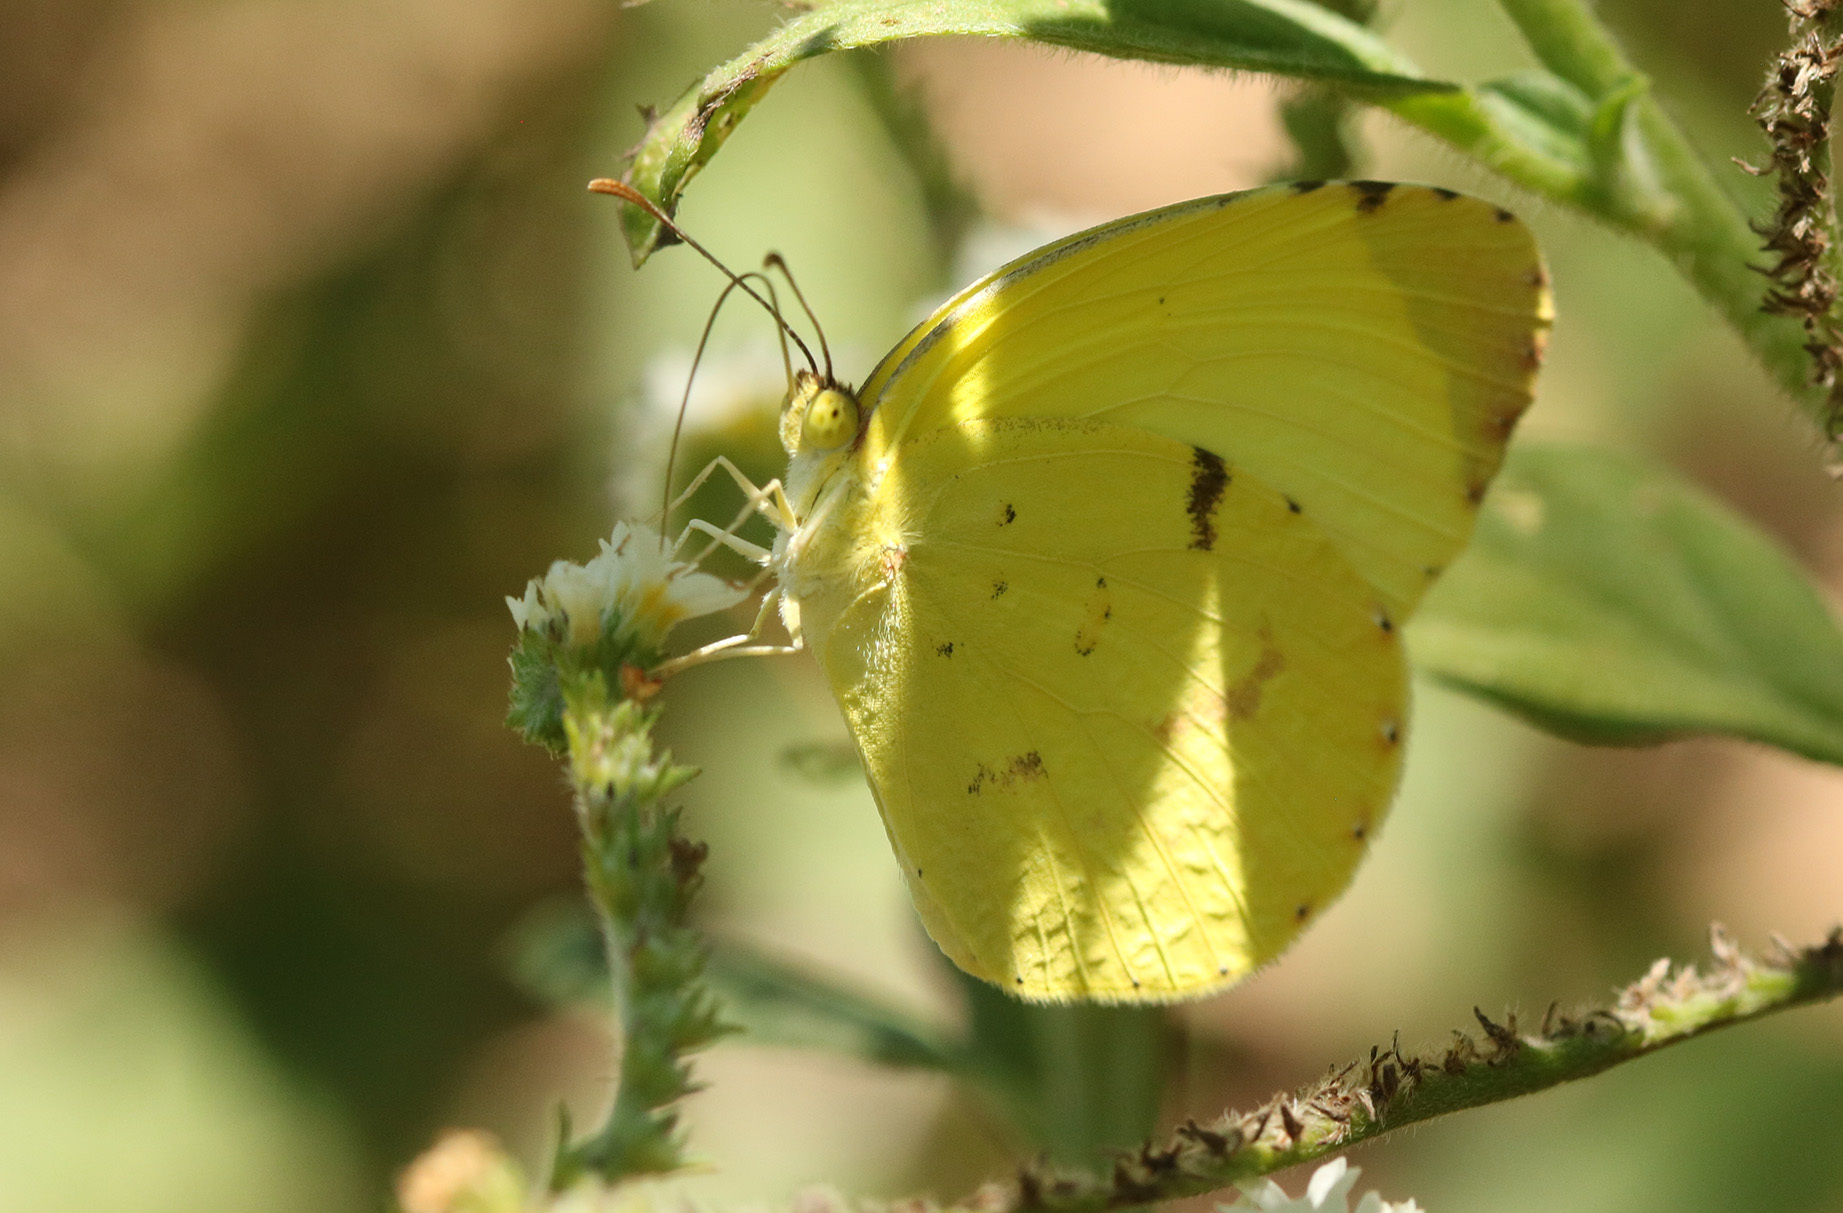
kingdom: Animalia
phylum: Arthropoda
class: Insecta
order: Lepidoptera
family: Pieridae
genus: Teriocolias
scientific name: Teriocolias
